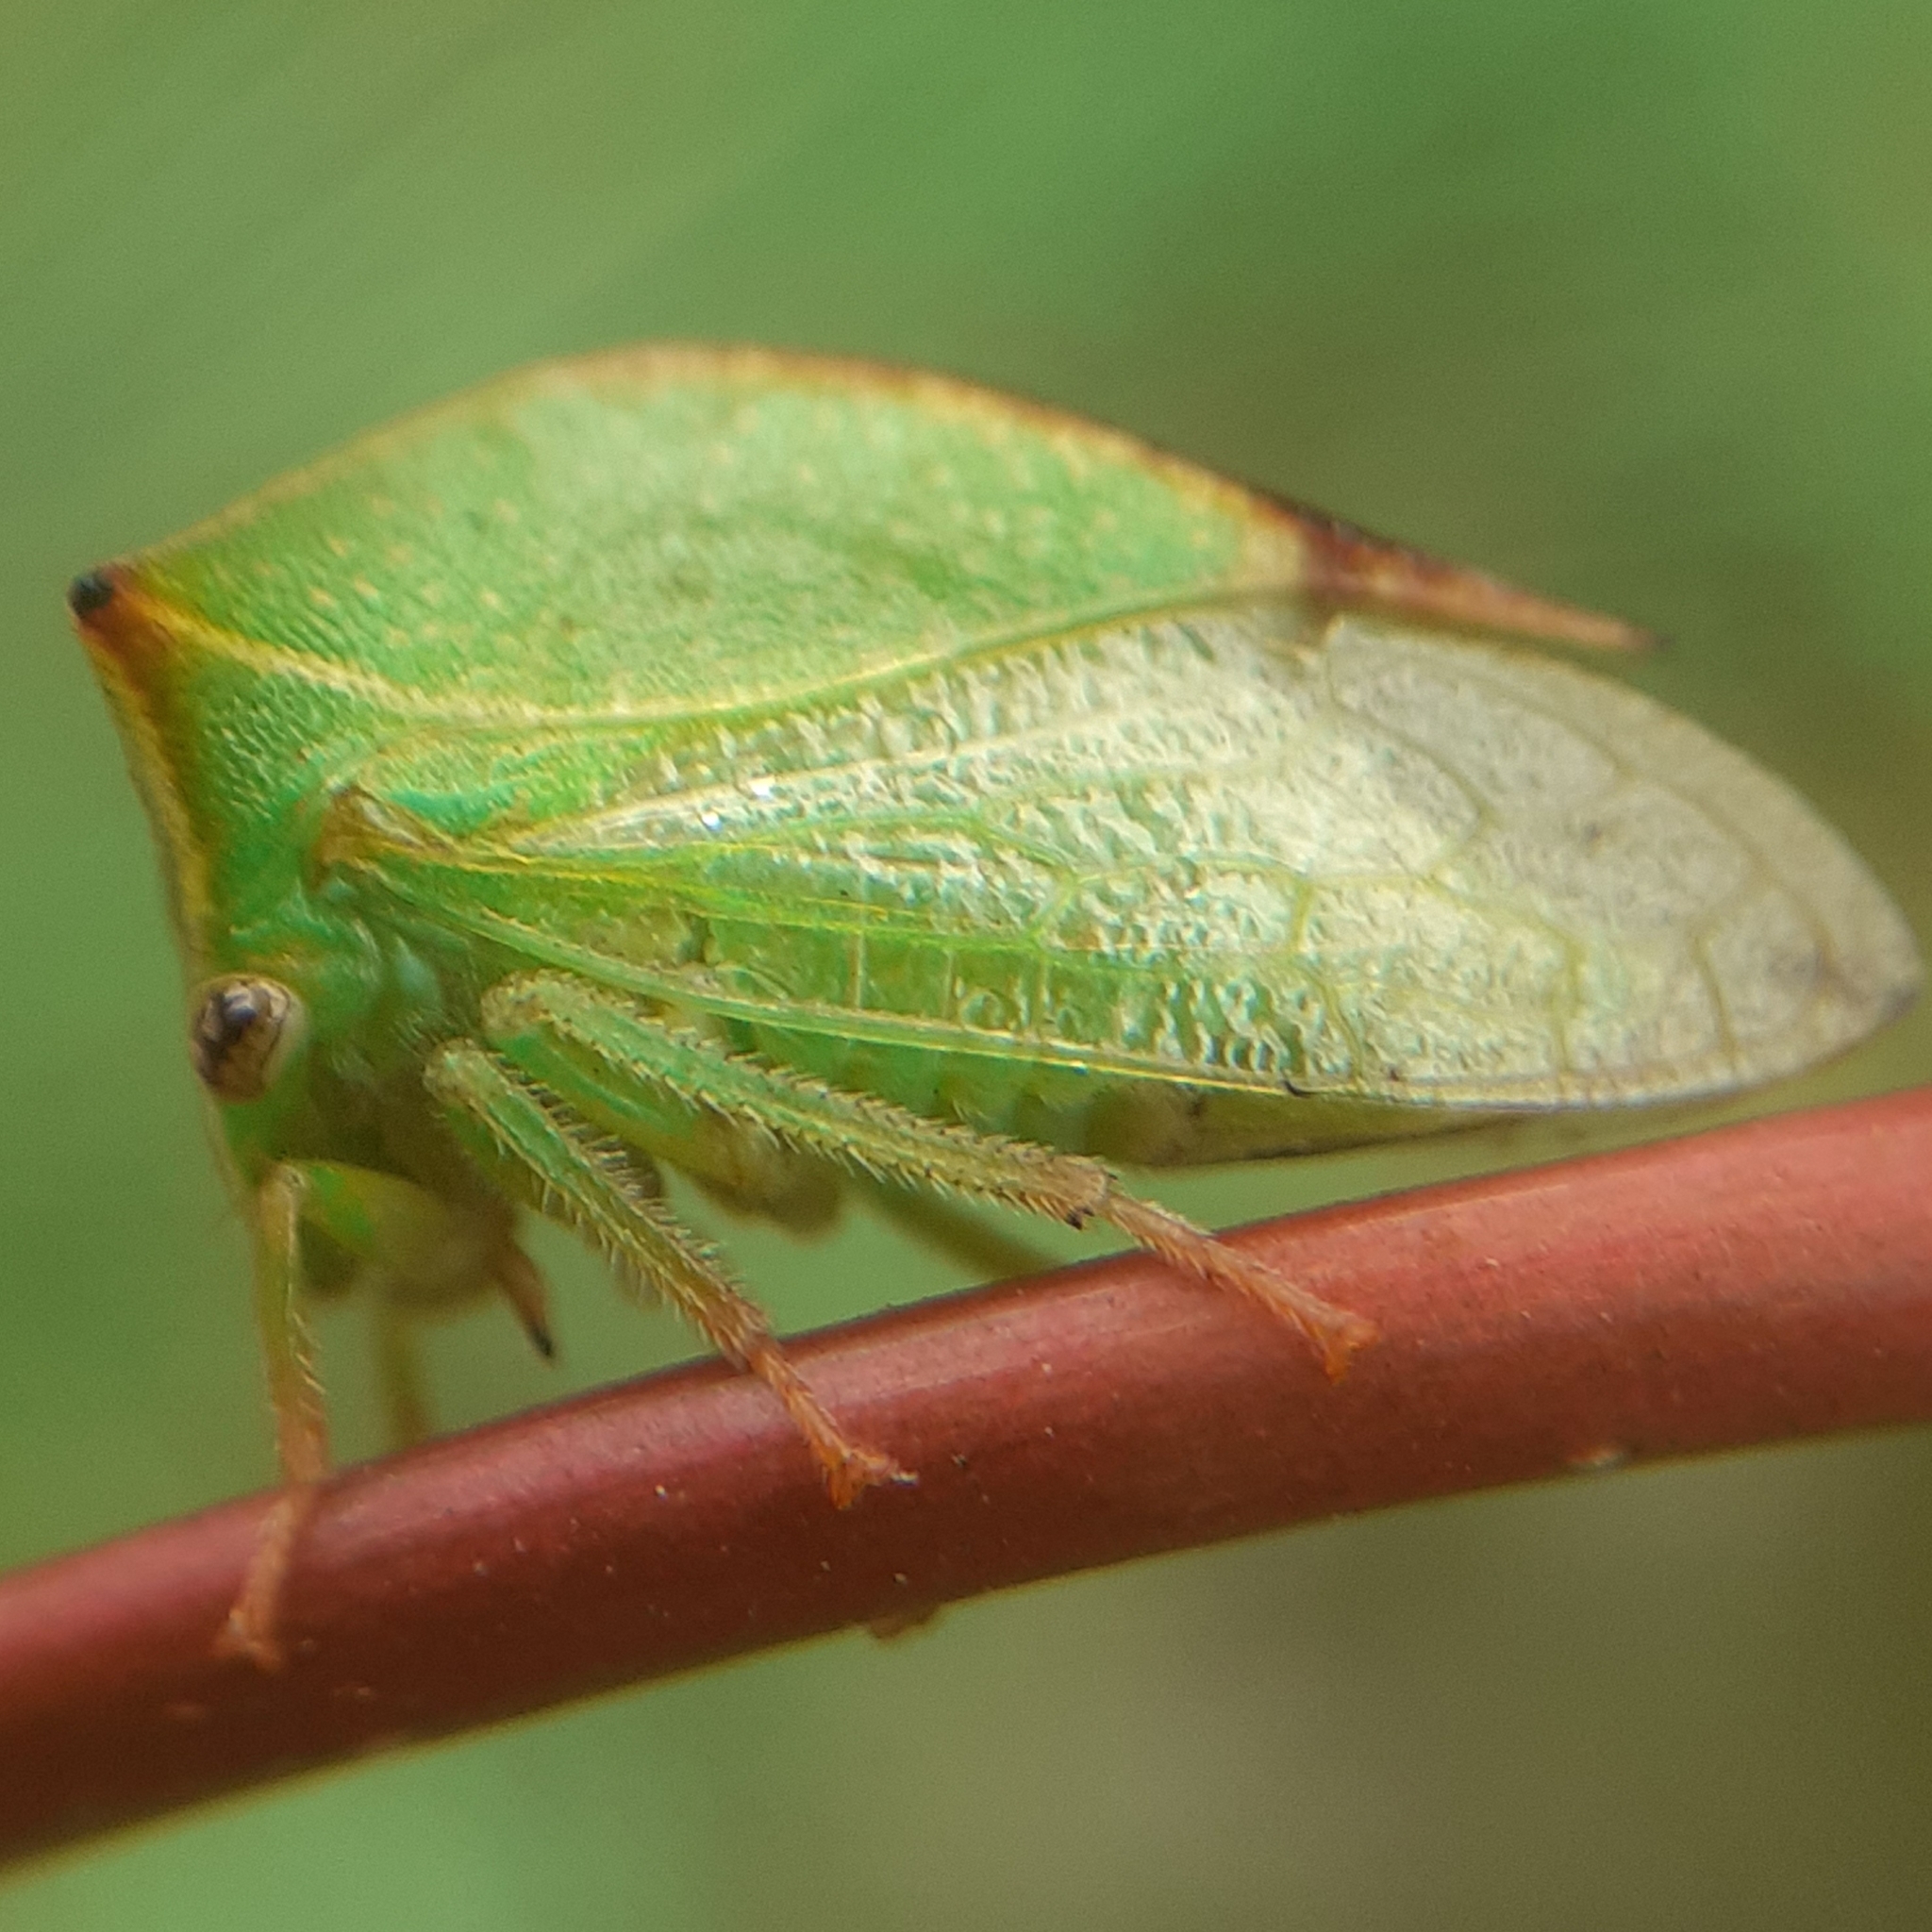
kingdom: Animalia
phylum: Arthropoda
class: Insecta
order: Hemiptera
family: Membracidae
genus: Stictocephala
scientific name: Stictocephala bisonia
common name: American buffalo treehopper
